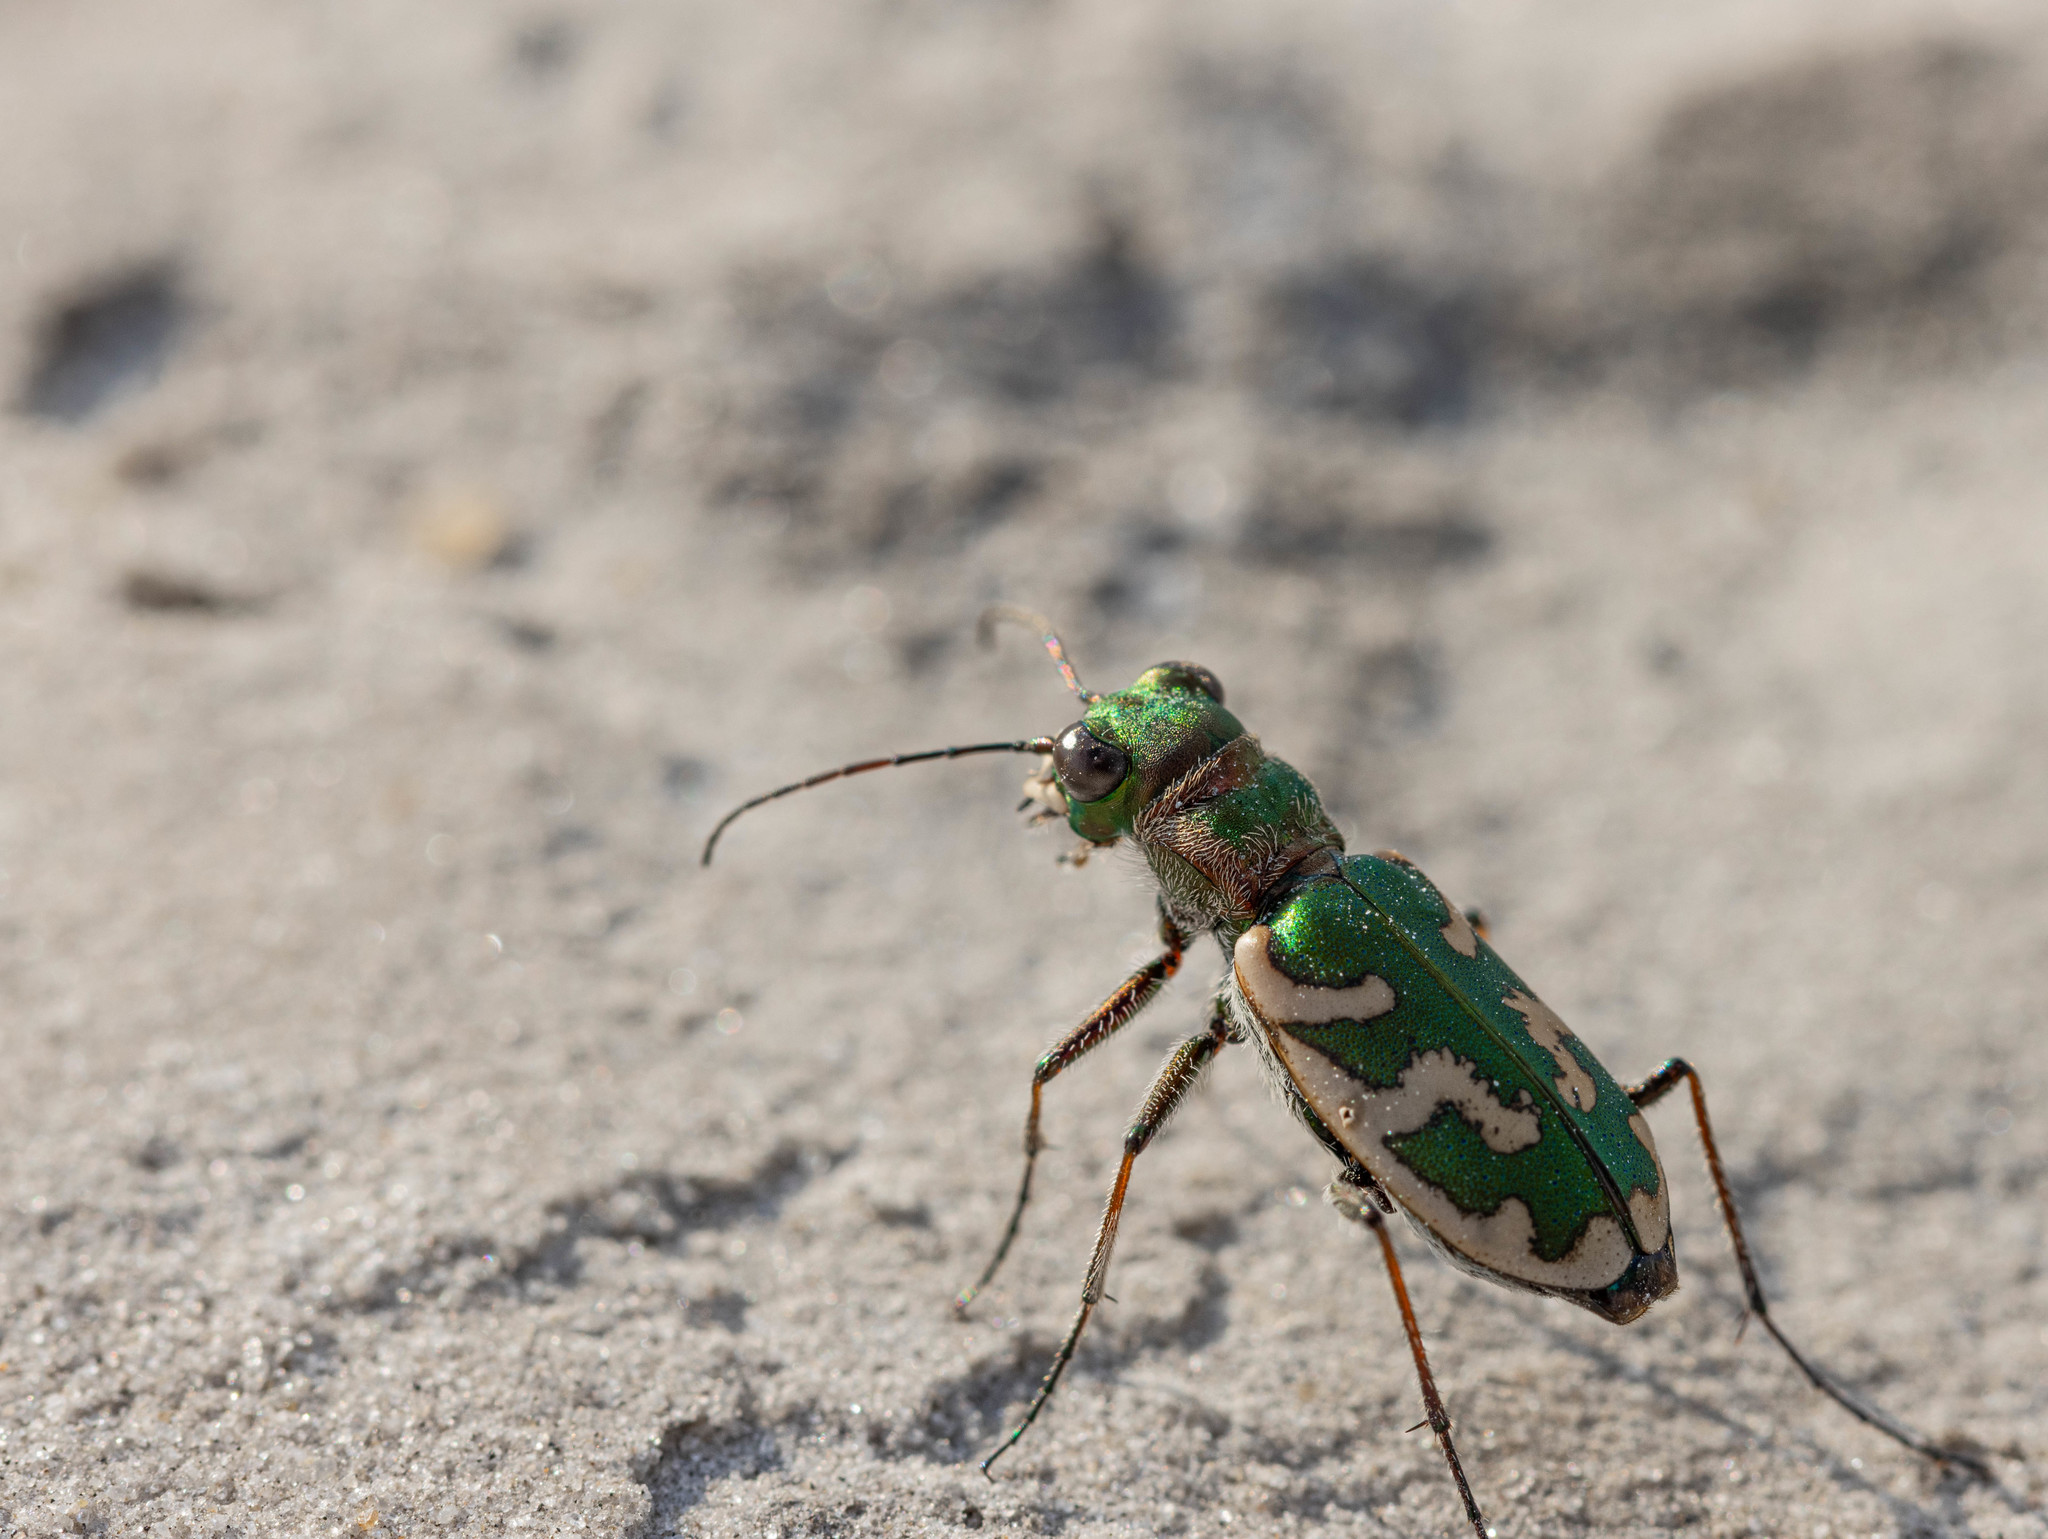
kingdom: Animalia
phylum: Arthropoda
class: Insecta
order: Coleoptera
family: Carabidae
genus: Cephalota
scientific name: Cephalota besseri
